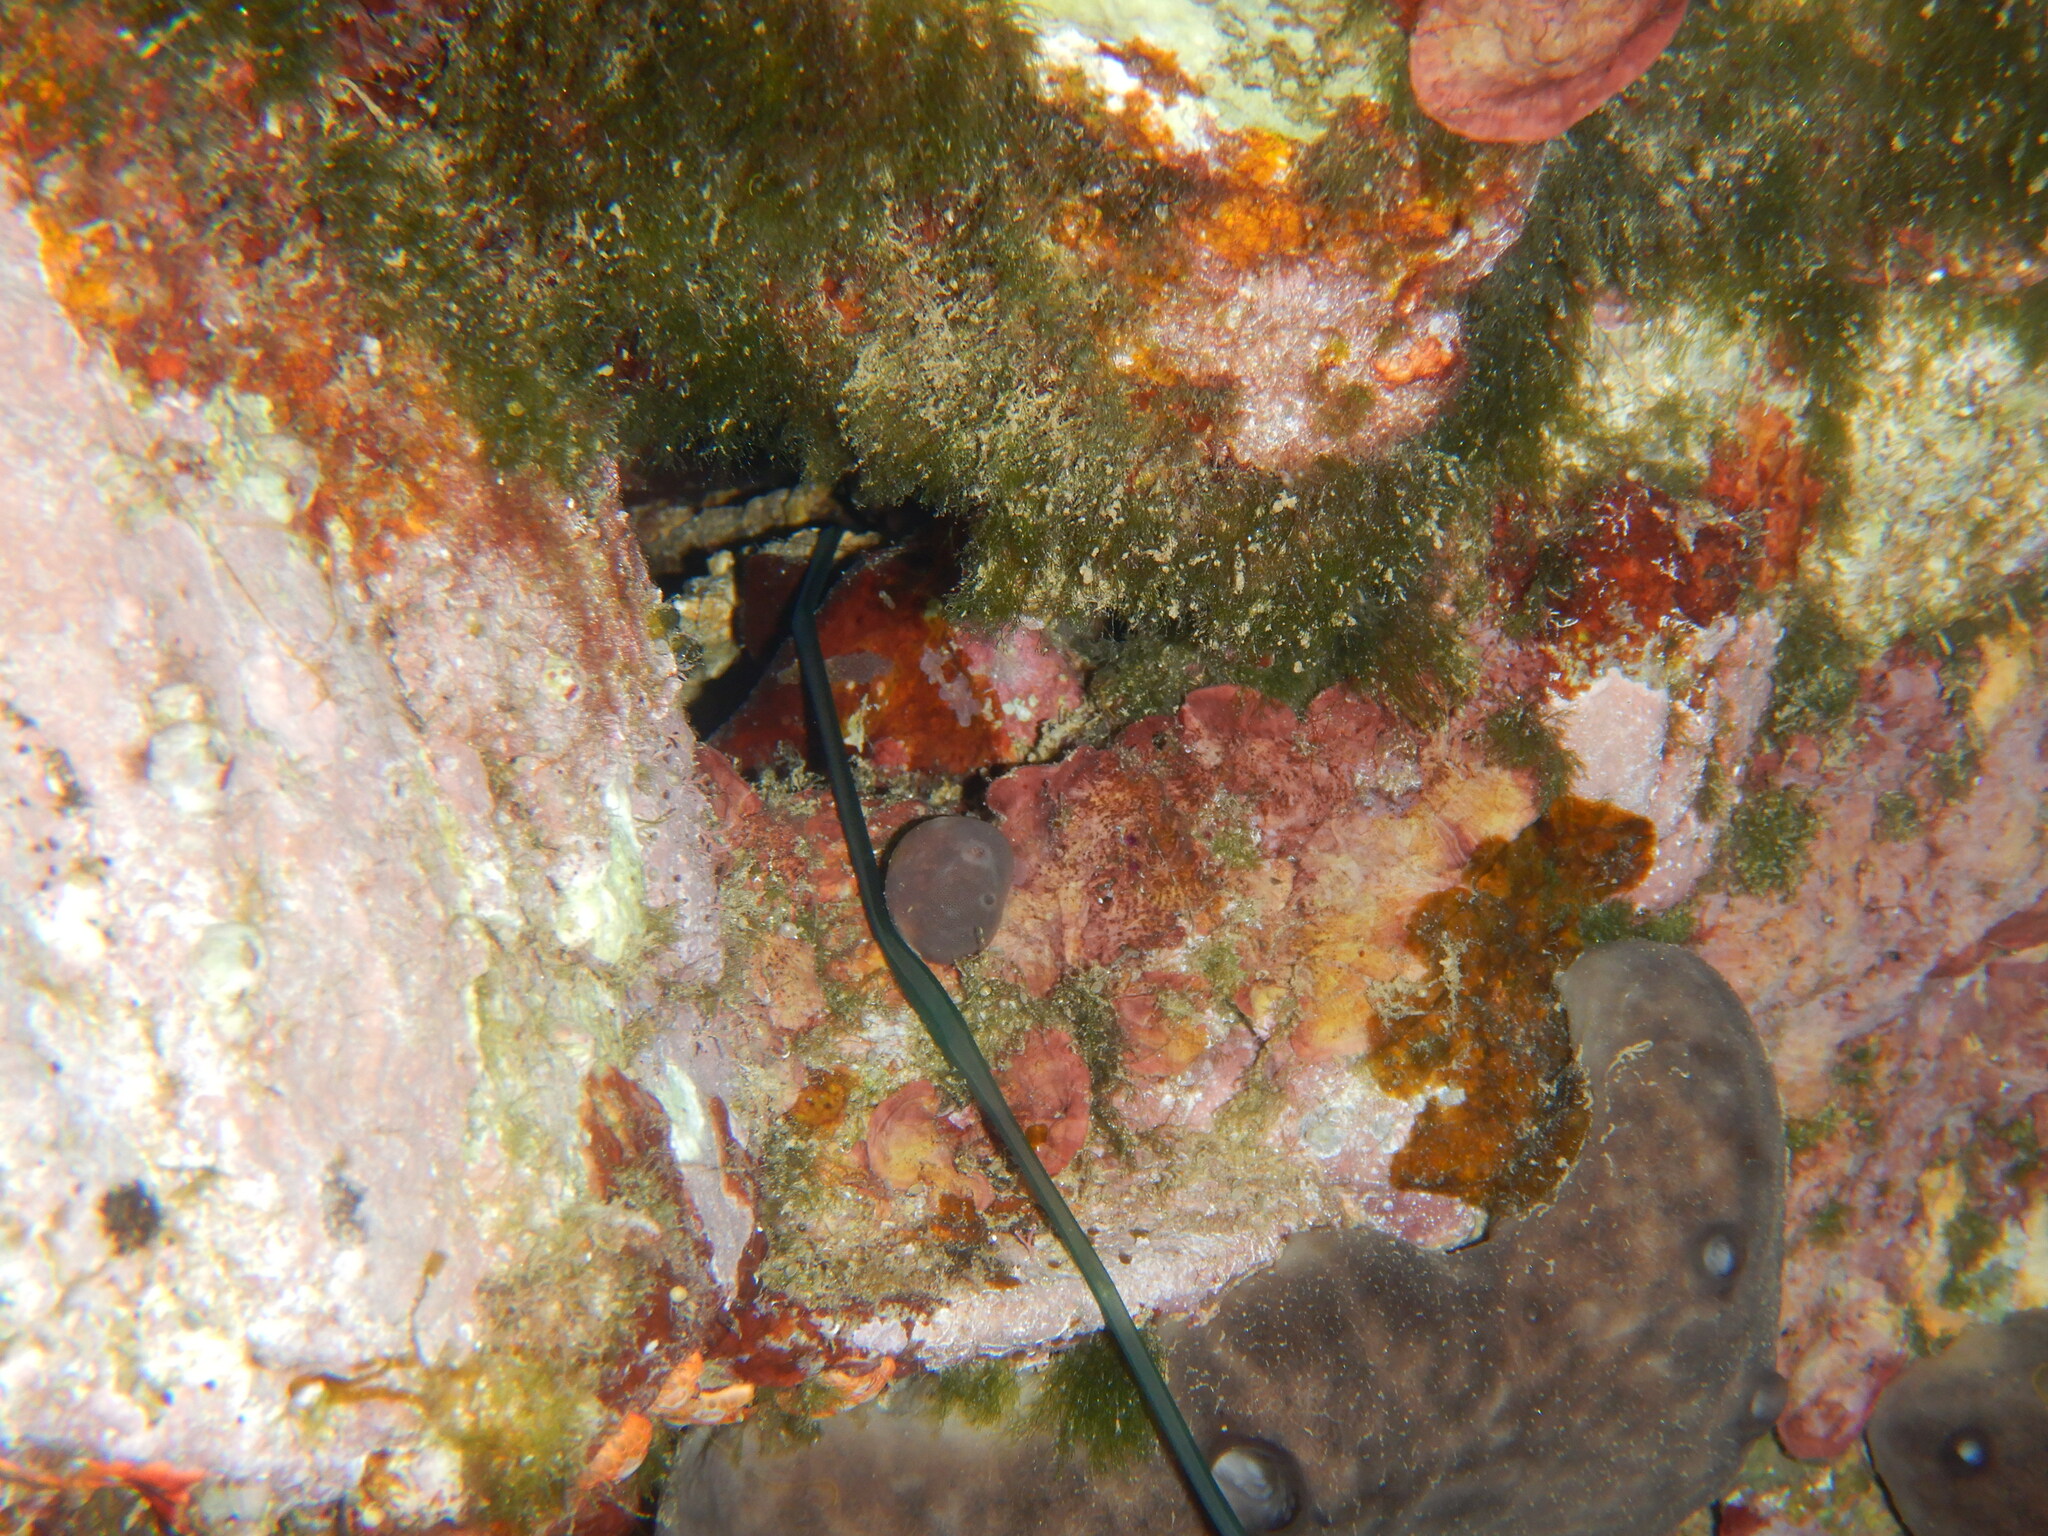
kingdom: Animalia
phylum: Porifera
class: Demospongiae
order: Chondrosiida
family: Chondrosiidae
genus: Chondrosia
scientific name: Chondrosia reniformis
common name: Chicken liver sponge
